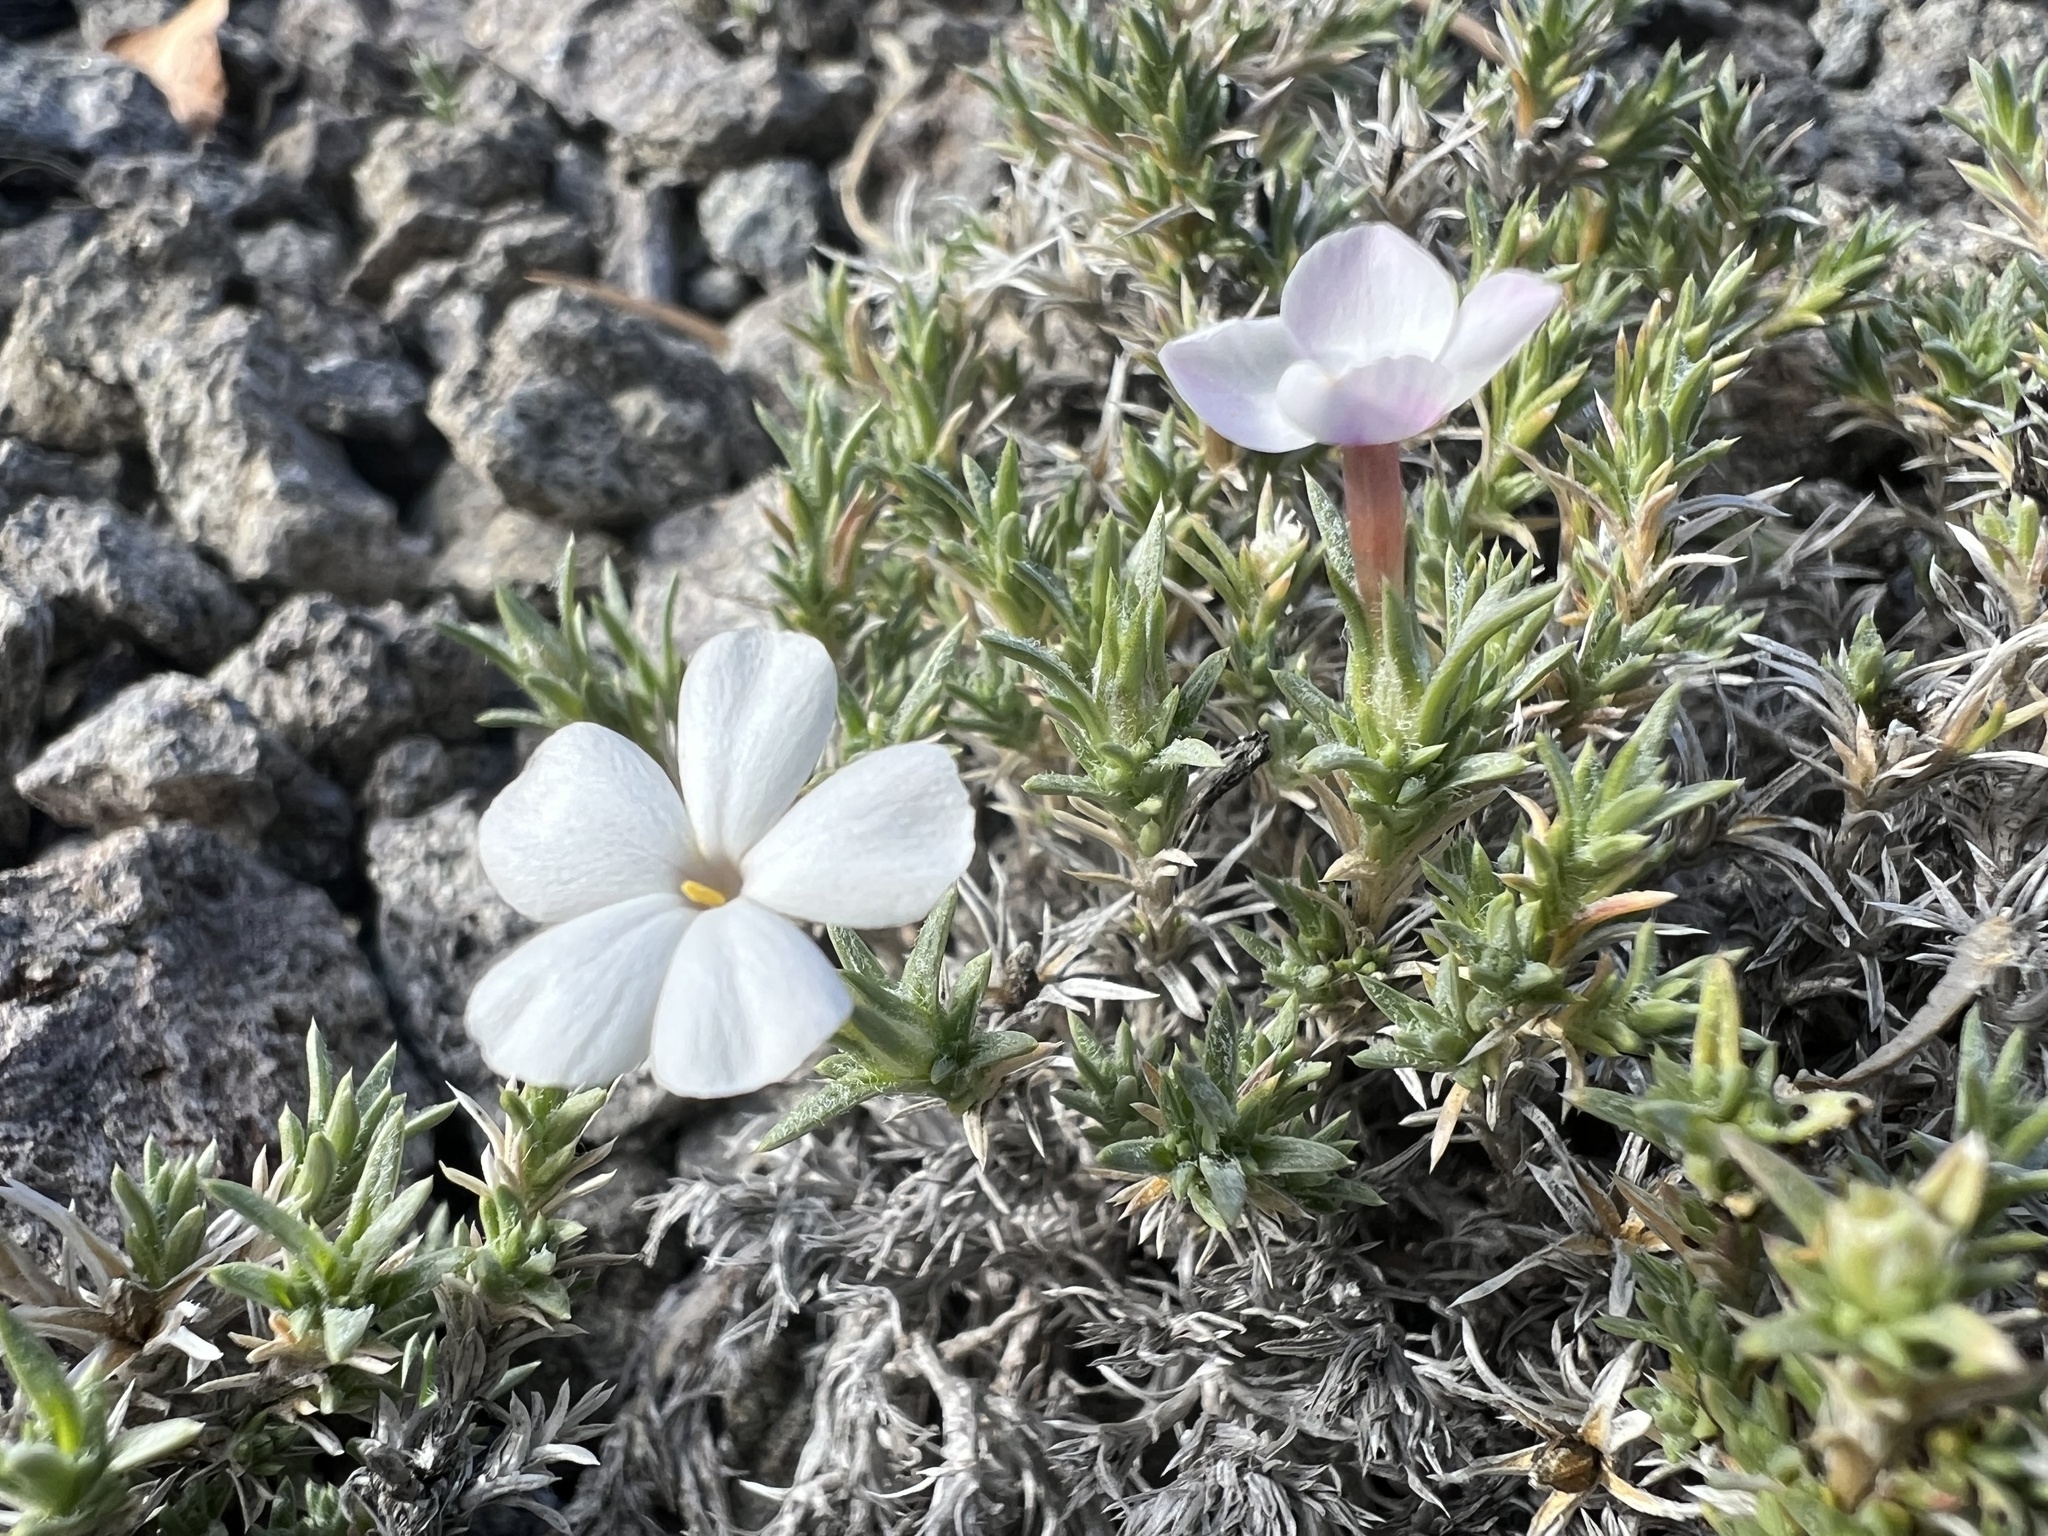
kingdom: Plantae
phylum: Tracheophyta
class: Magnoliopsida
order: Ericales
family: Polemoniaceae
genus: Phlox
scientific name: Phlox hoodii
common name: Moss phlox
